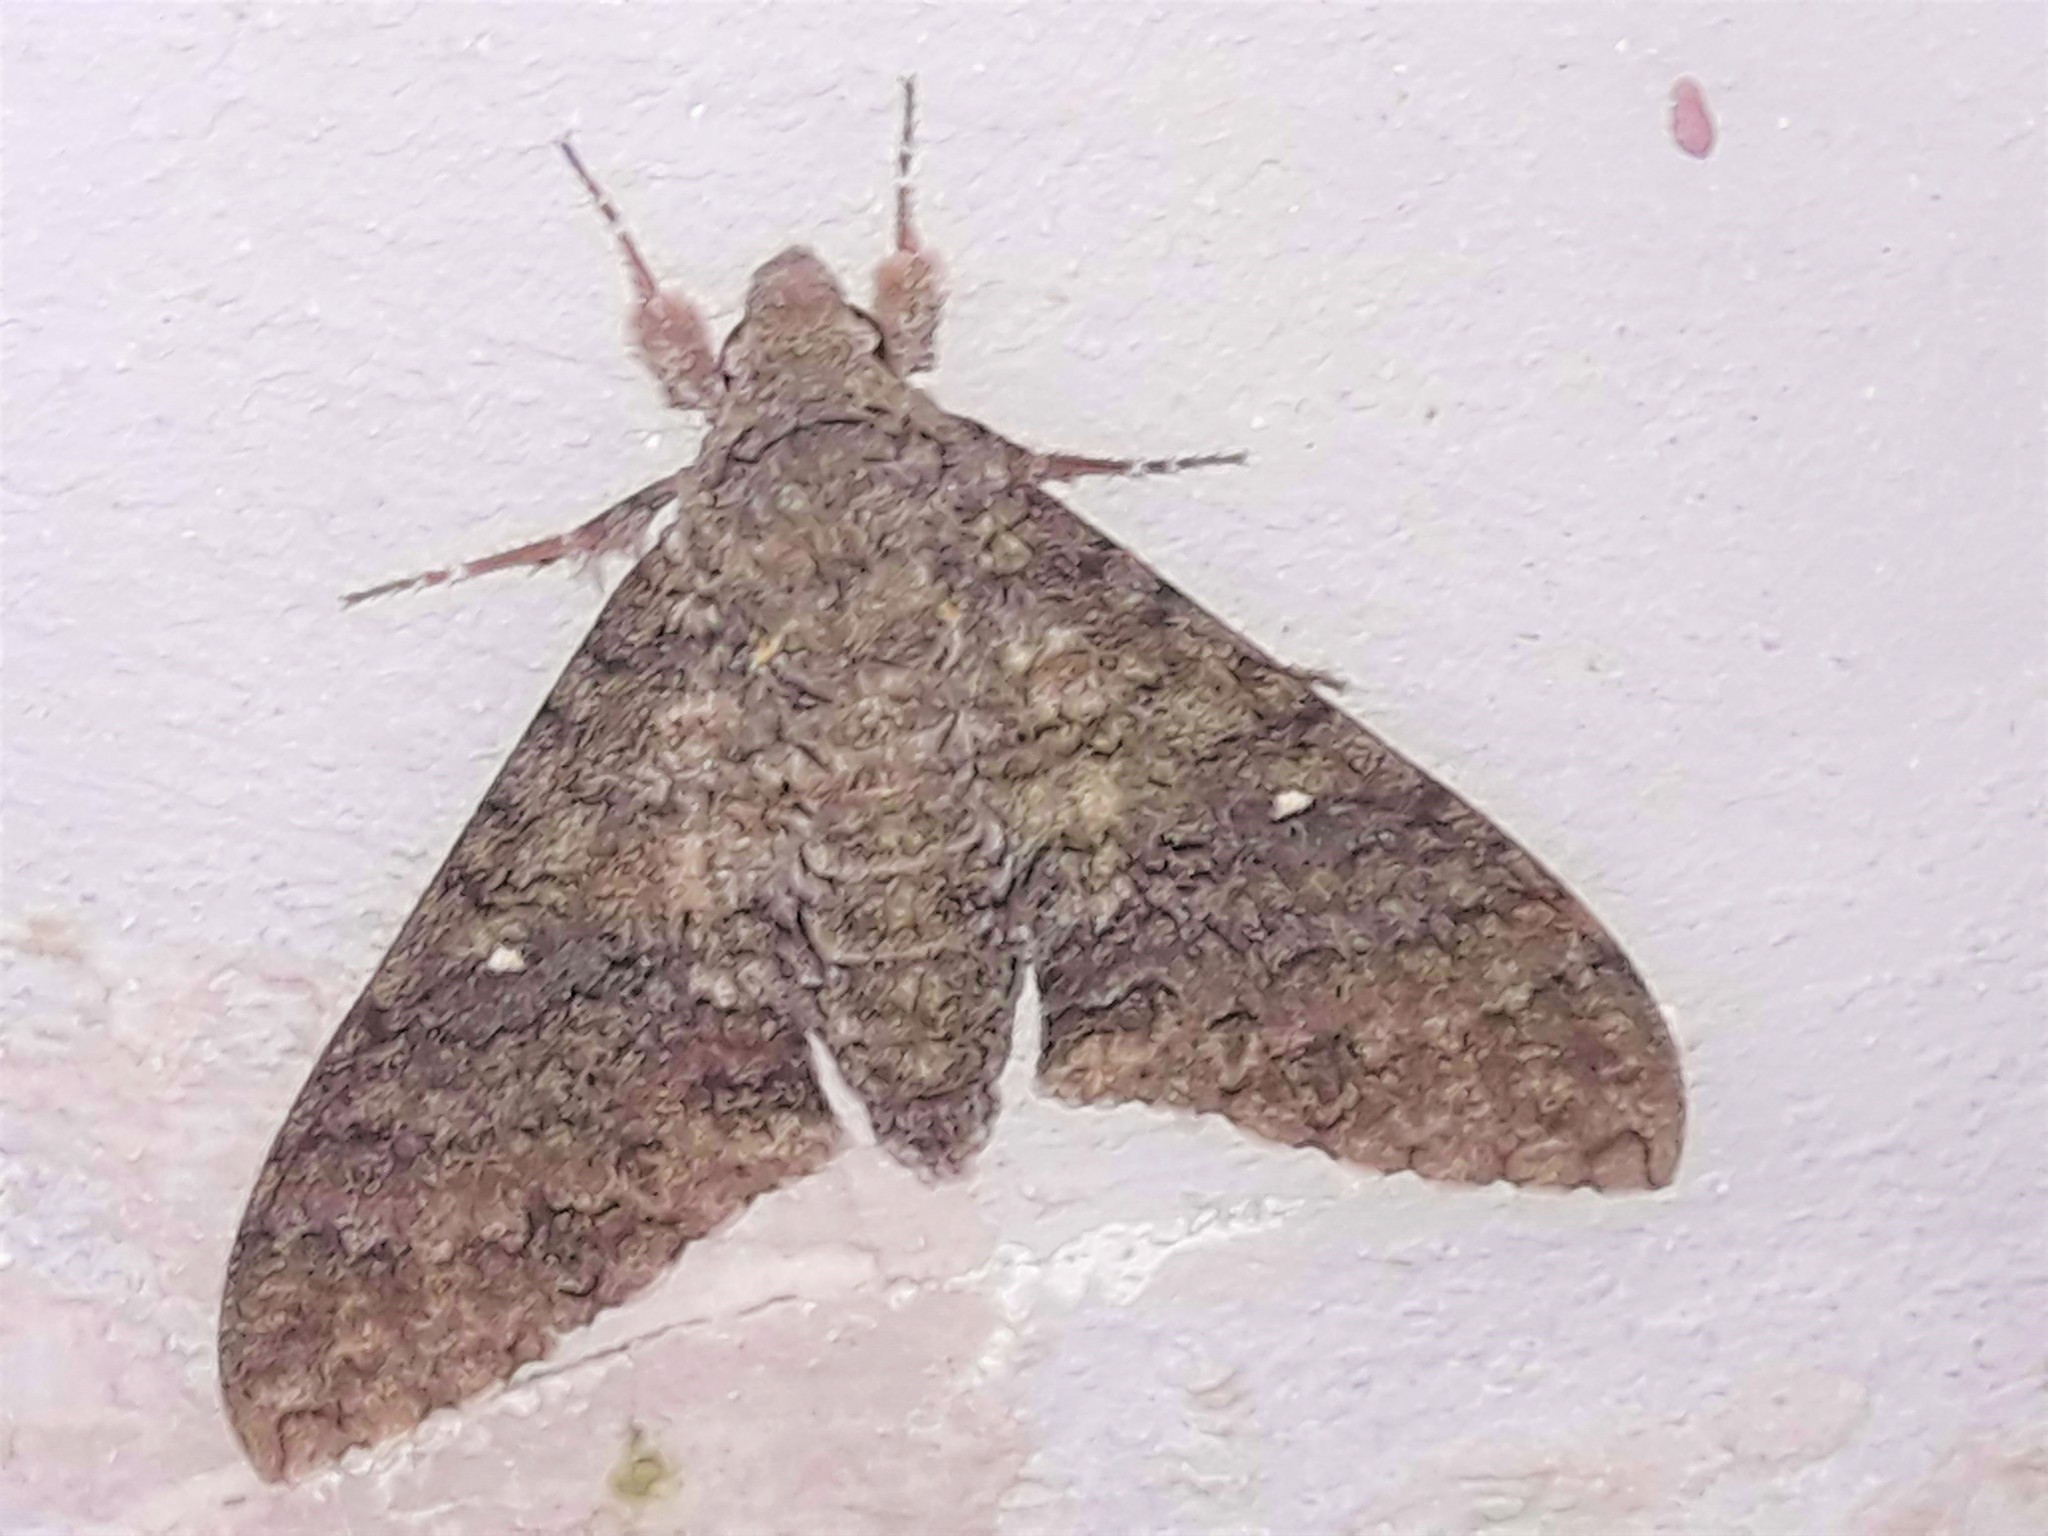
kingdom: Animalia
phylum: Arthropoda
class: Insecta
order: Lepidoptera
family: Sphingidae
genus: Manduca
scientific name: Manduca muscosa
